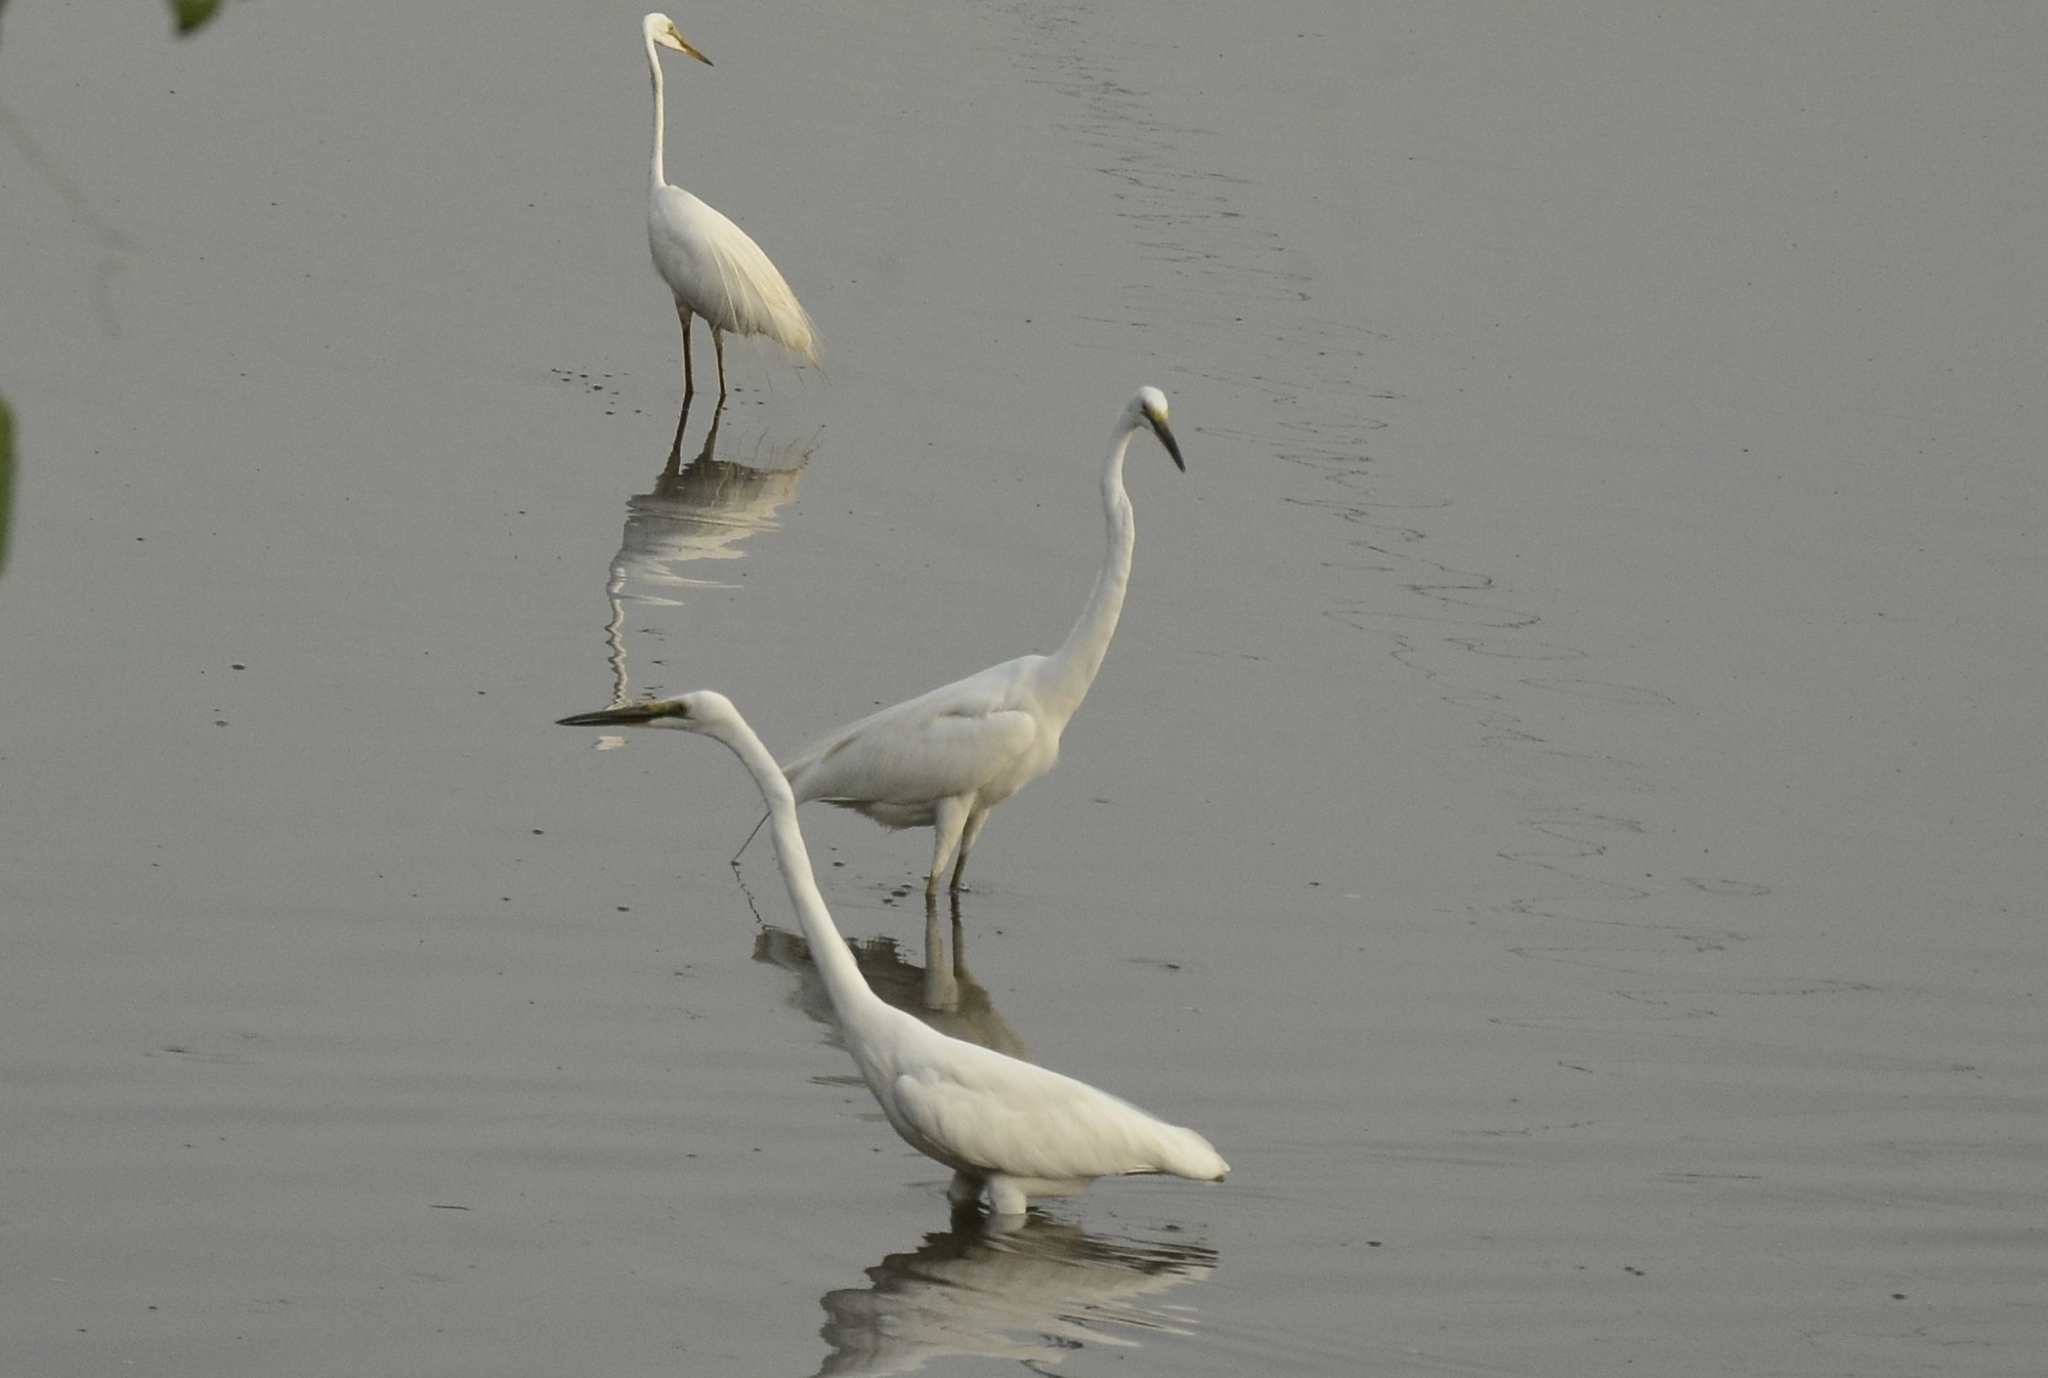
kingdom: Animalia
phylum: Chordata
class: Aves
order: Pelecaniformes
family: Ardeidae
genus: Ardea
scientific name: Ardea alba
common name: Great egret
